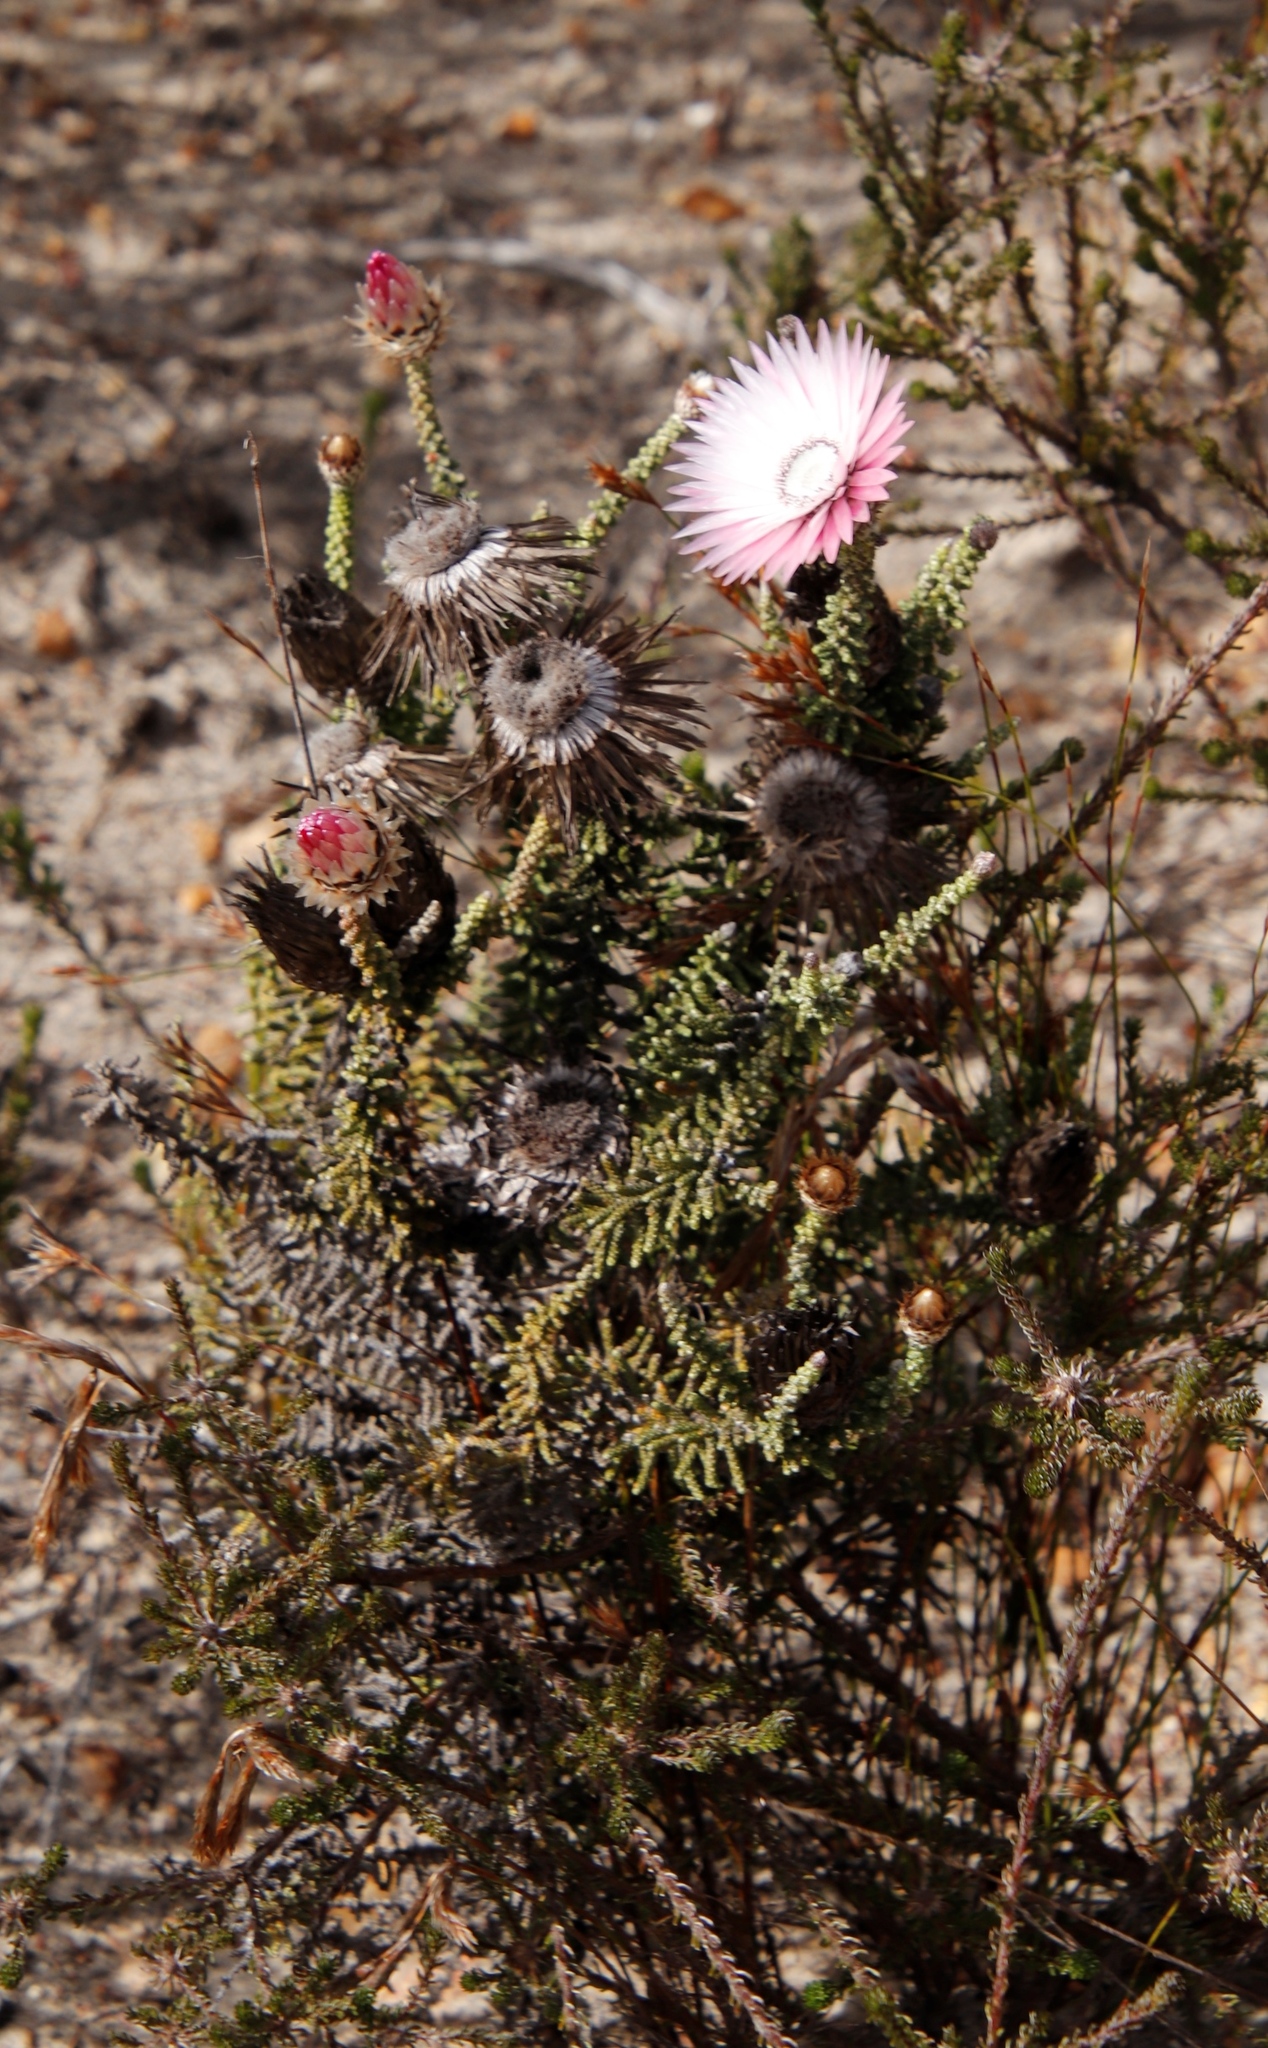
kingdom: Plantae
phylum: Tracheophyta
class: Magnoliopsida
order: Asterales
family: Asteraceae
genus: Phaenocoma
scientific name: Phaenocoma prolifera
